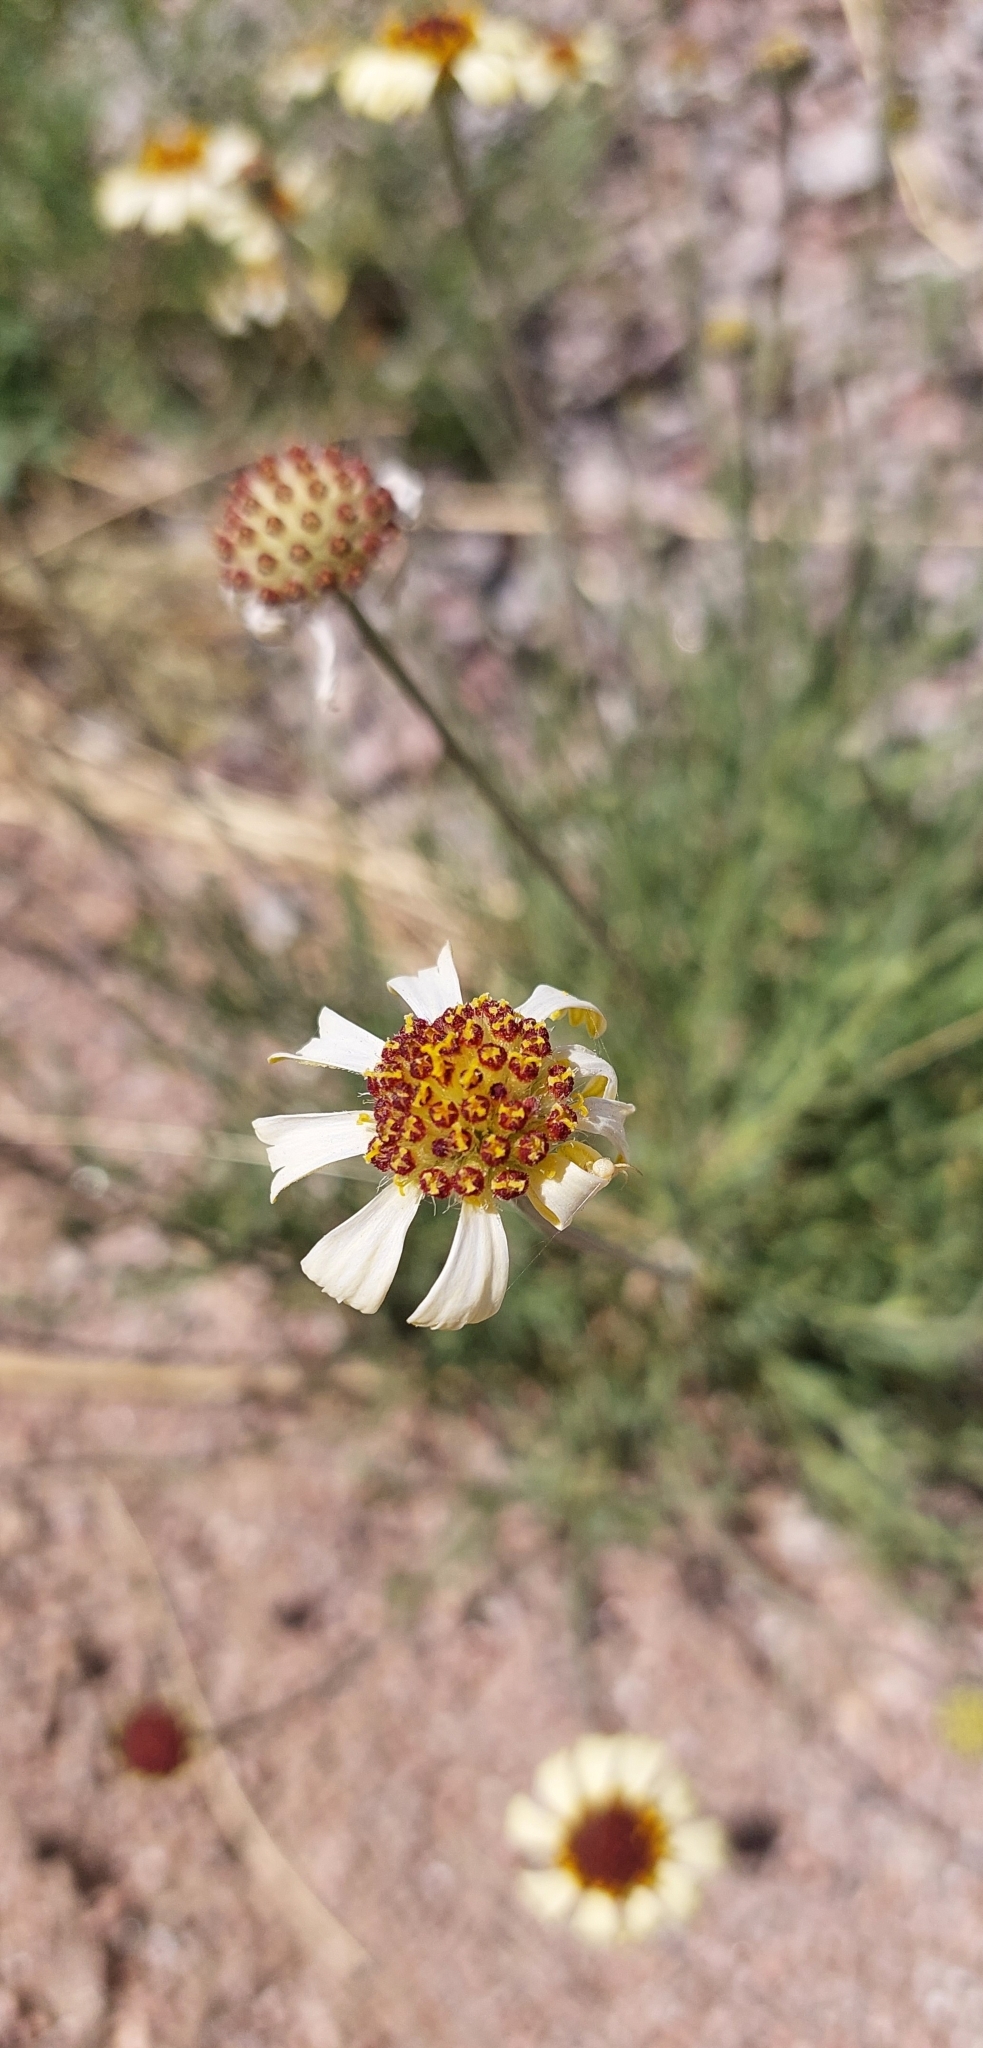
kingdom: Plantae
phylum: Tracheophyta
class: Magnoliopsida
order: Asterales
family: Asteraceae
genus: Helenium
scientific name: Helenium uniflorum
